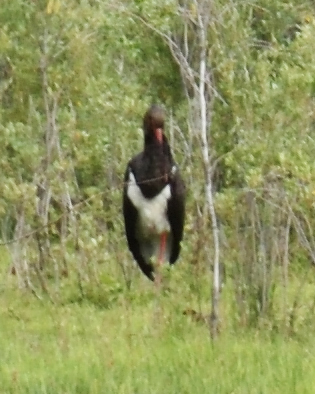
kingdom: Animalia
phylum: Chordata
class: Aves
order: Ciconiiformes
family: Ciconiidae
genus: Ciconia
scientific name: Ciconia nigra
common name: Black stork
